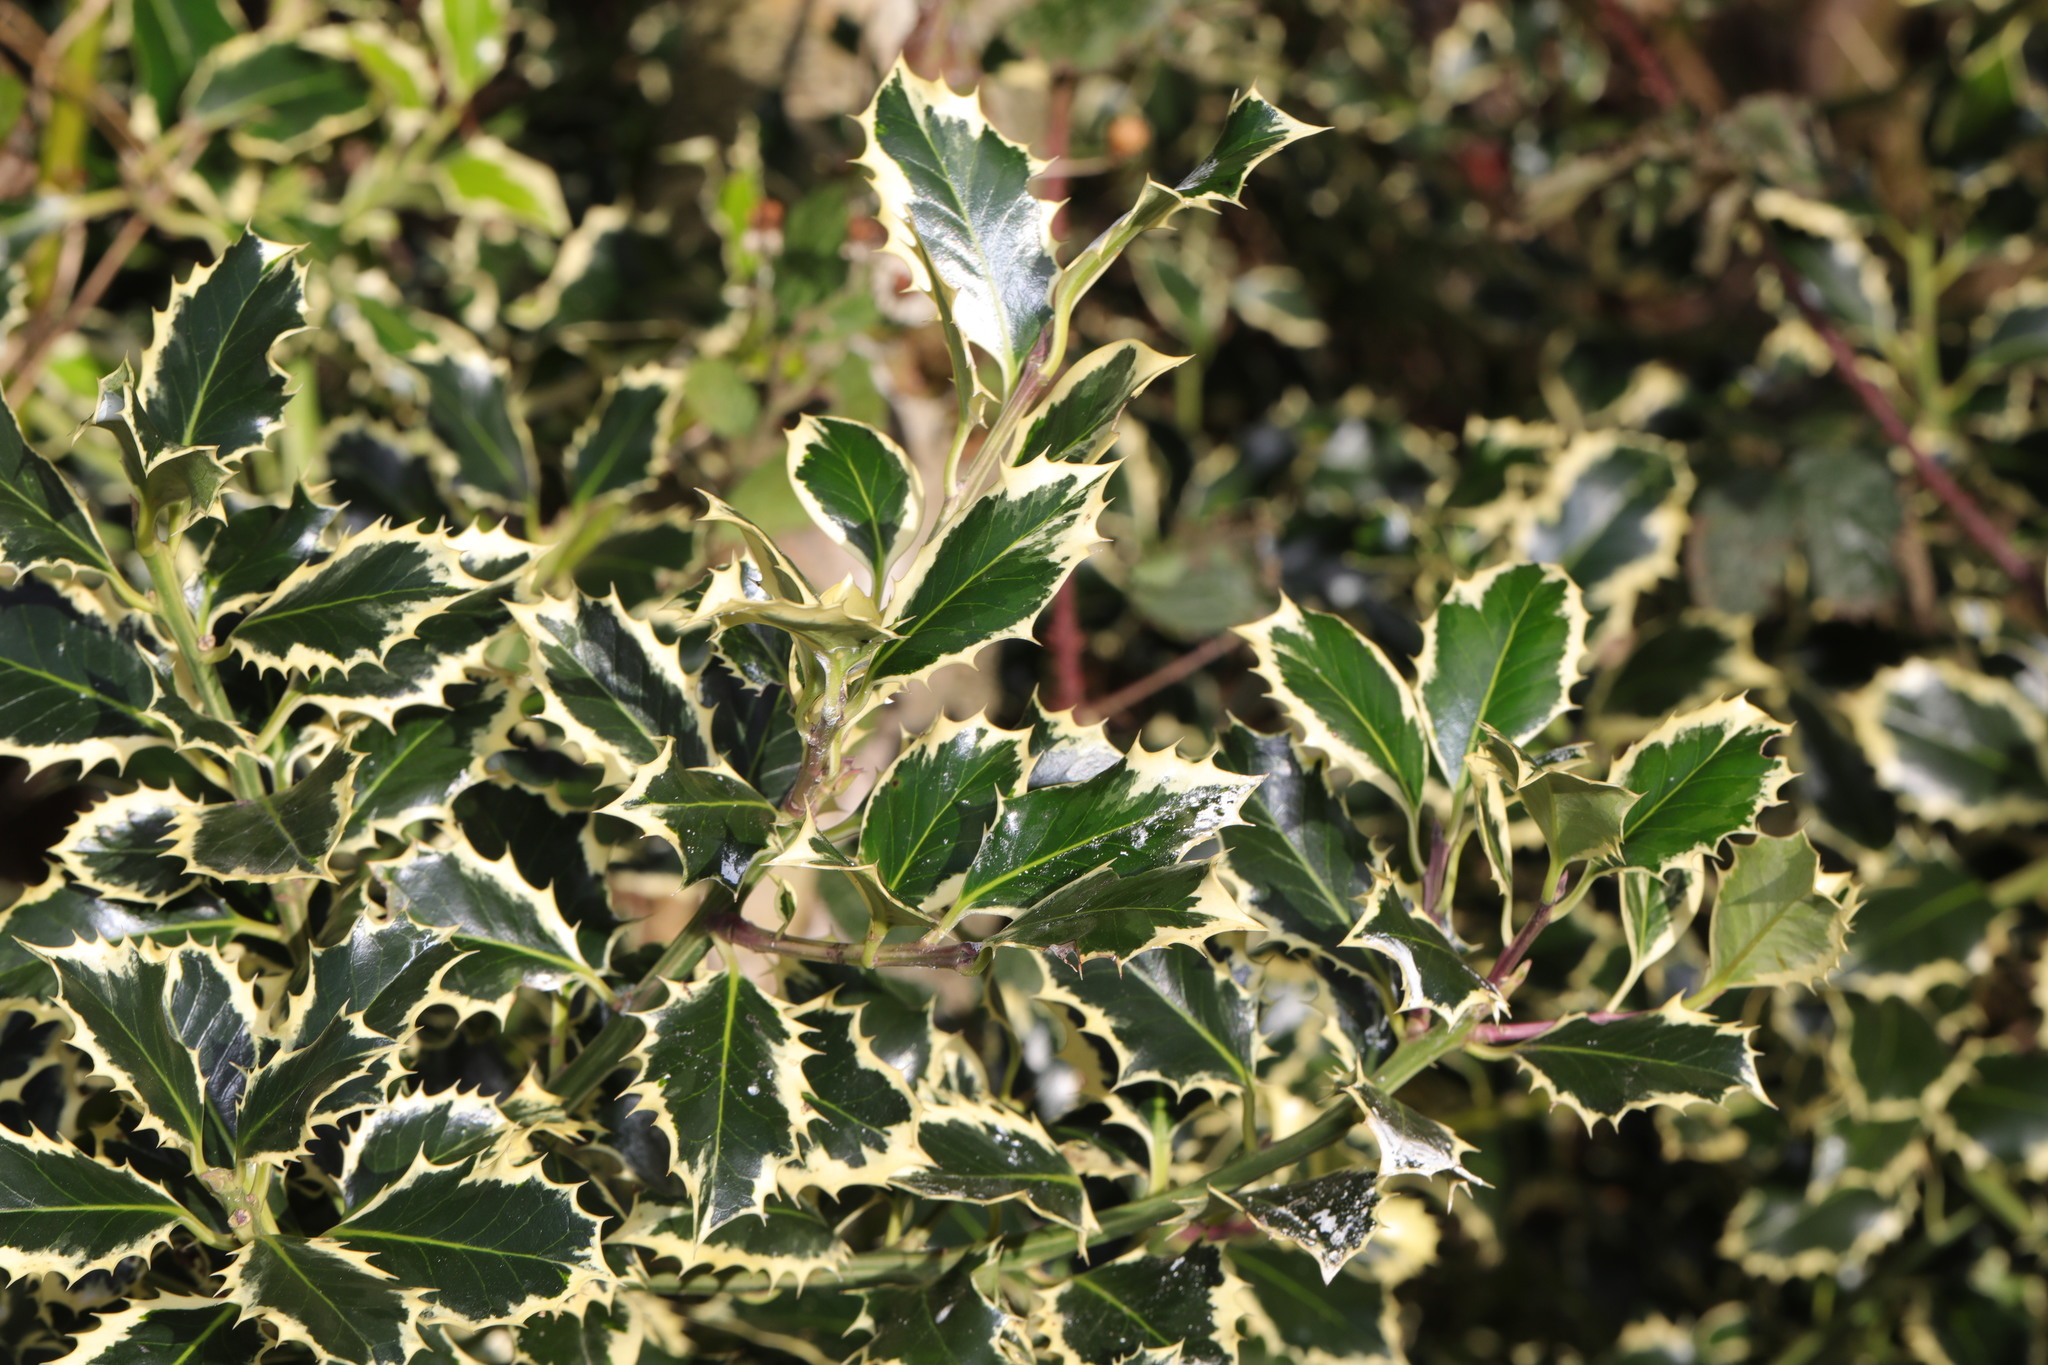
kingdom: Plantae
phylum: Tracheophyta
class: Magnoliopsida
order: Aquifoliales
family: Aquifoliaceae
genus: Ilex
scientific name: Ilex aquifolium
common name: English holly
